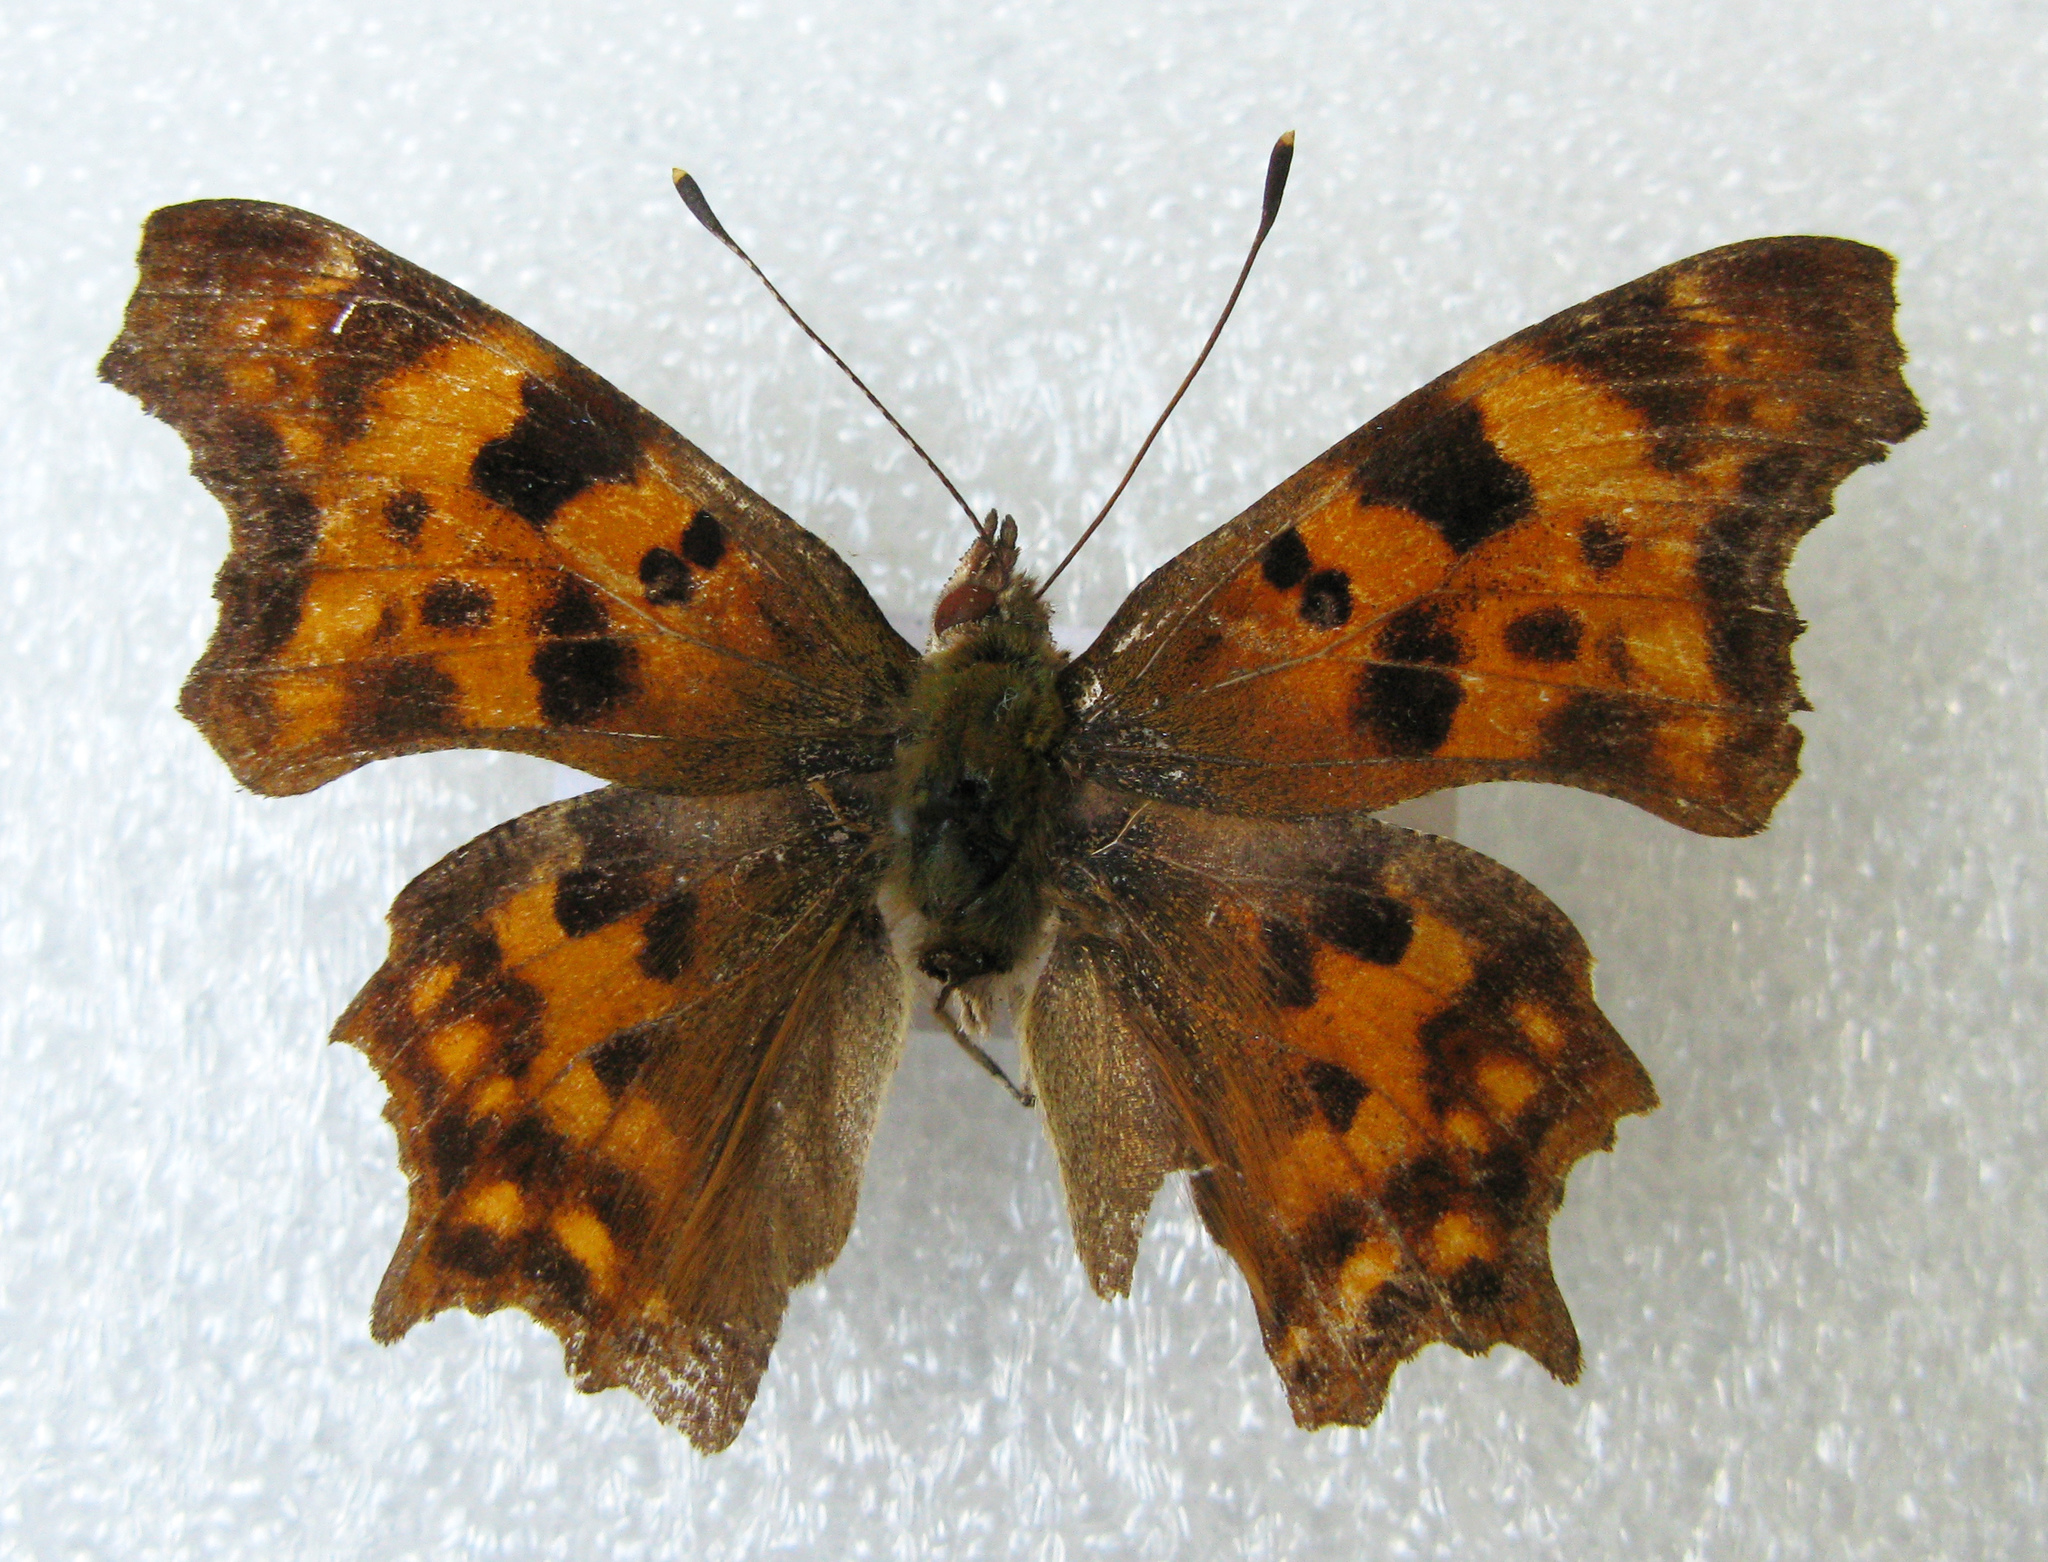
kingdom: Animalia
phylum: Arthropoda
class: Insecta
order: Lepidoptera
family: Nymphalidae
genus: Polygonia
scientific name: Polygonia c-album
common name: Comma
